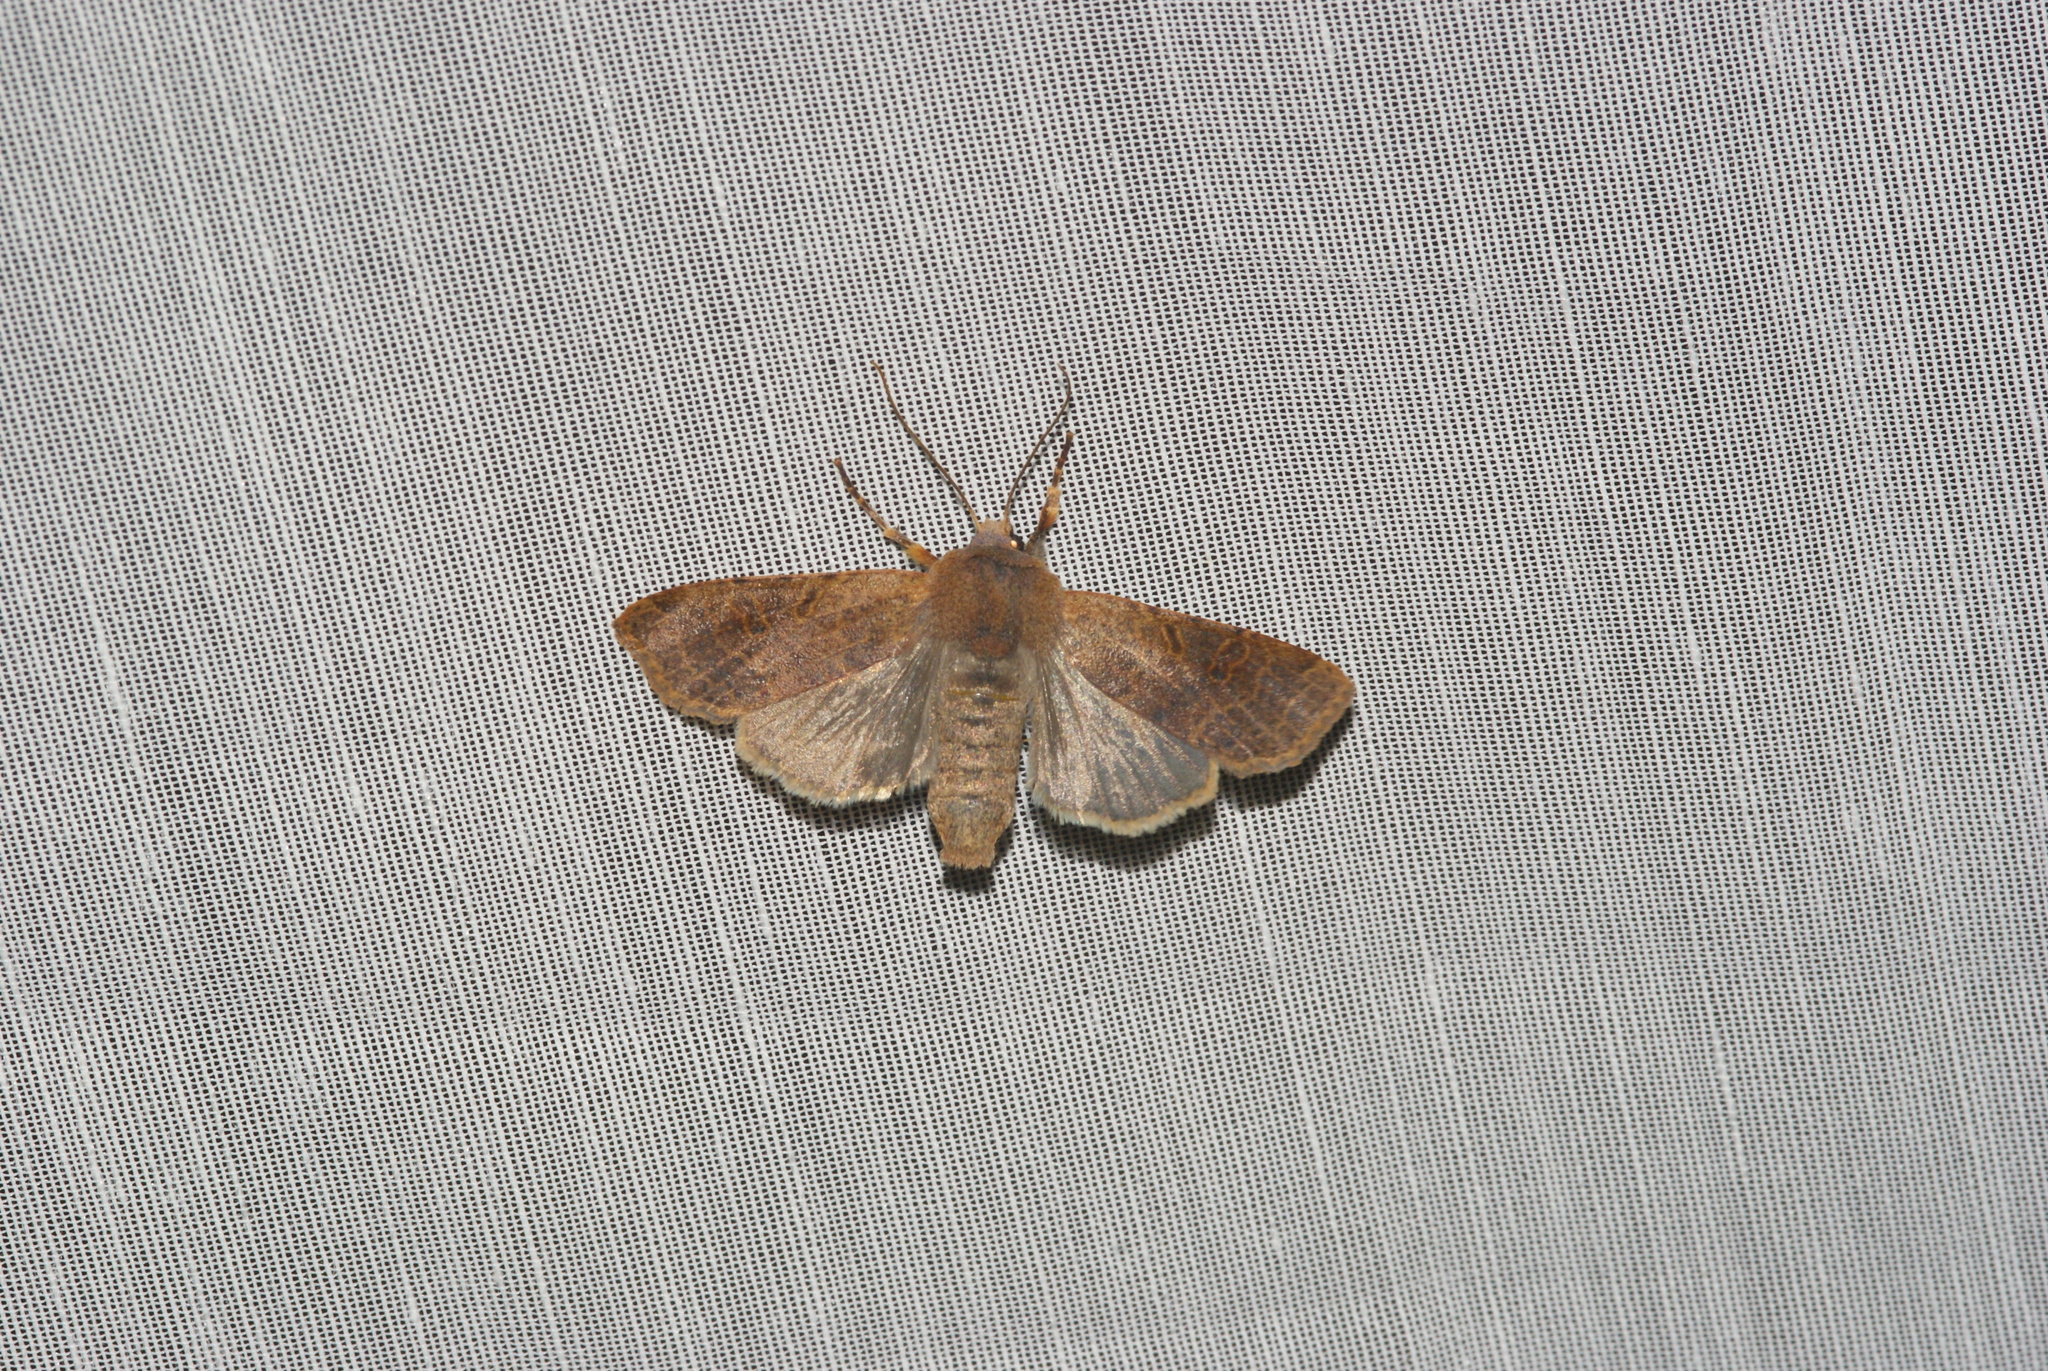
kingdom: Animalia
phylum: Arthropoda
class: Insecta
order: Lepidoptera
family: Noctuidae
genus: Agrochola
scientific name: Agrochola lychnidis
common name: Beaded chestnut
